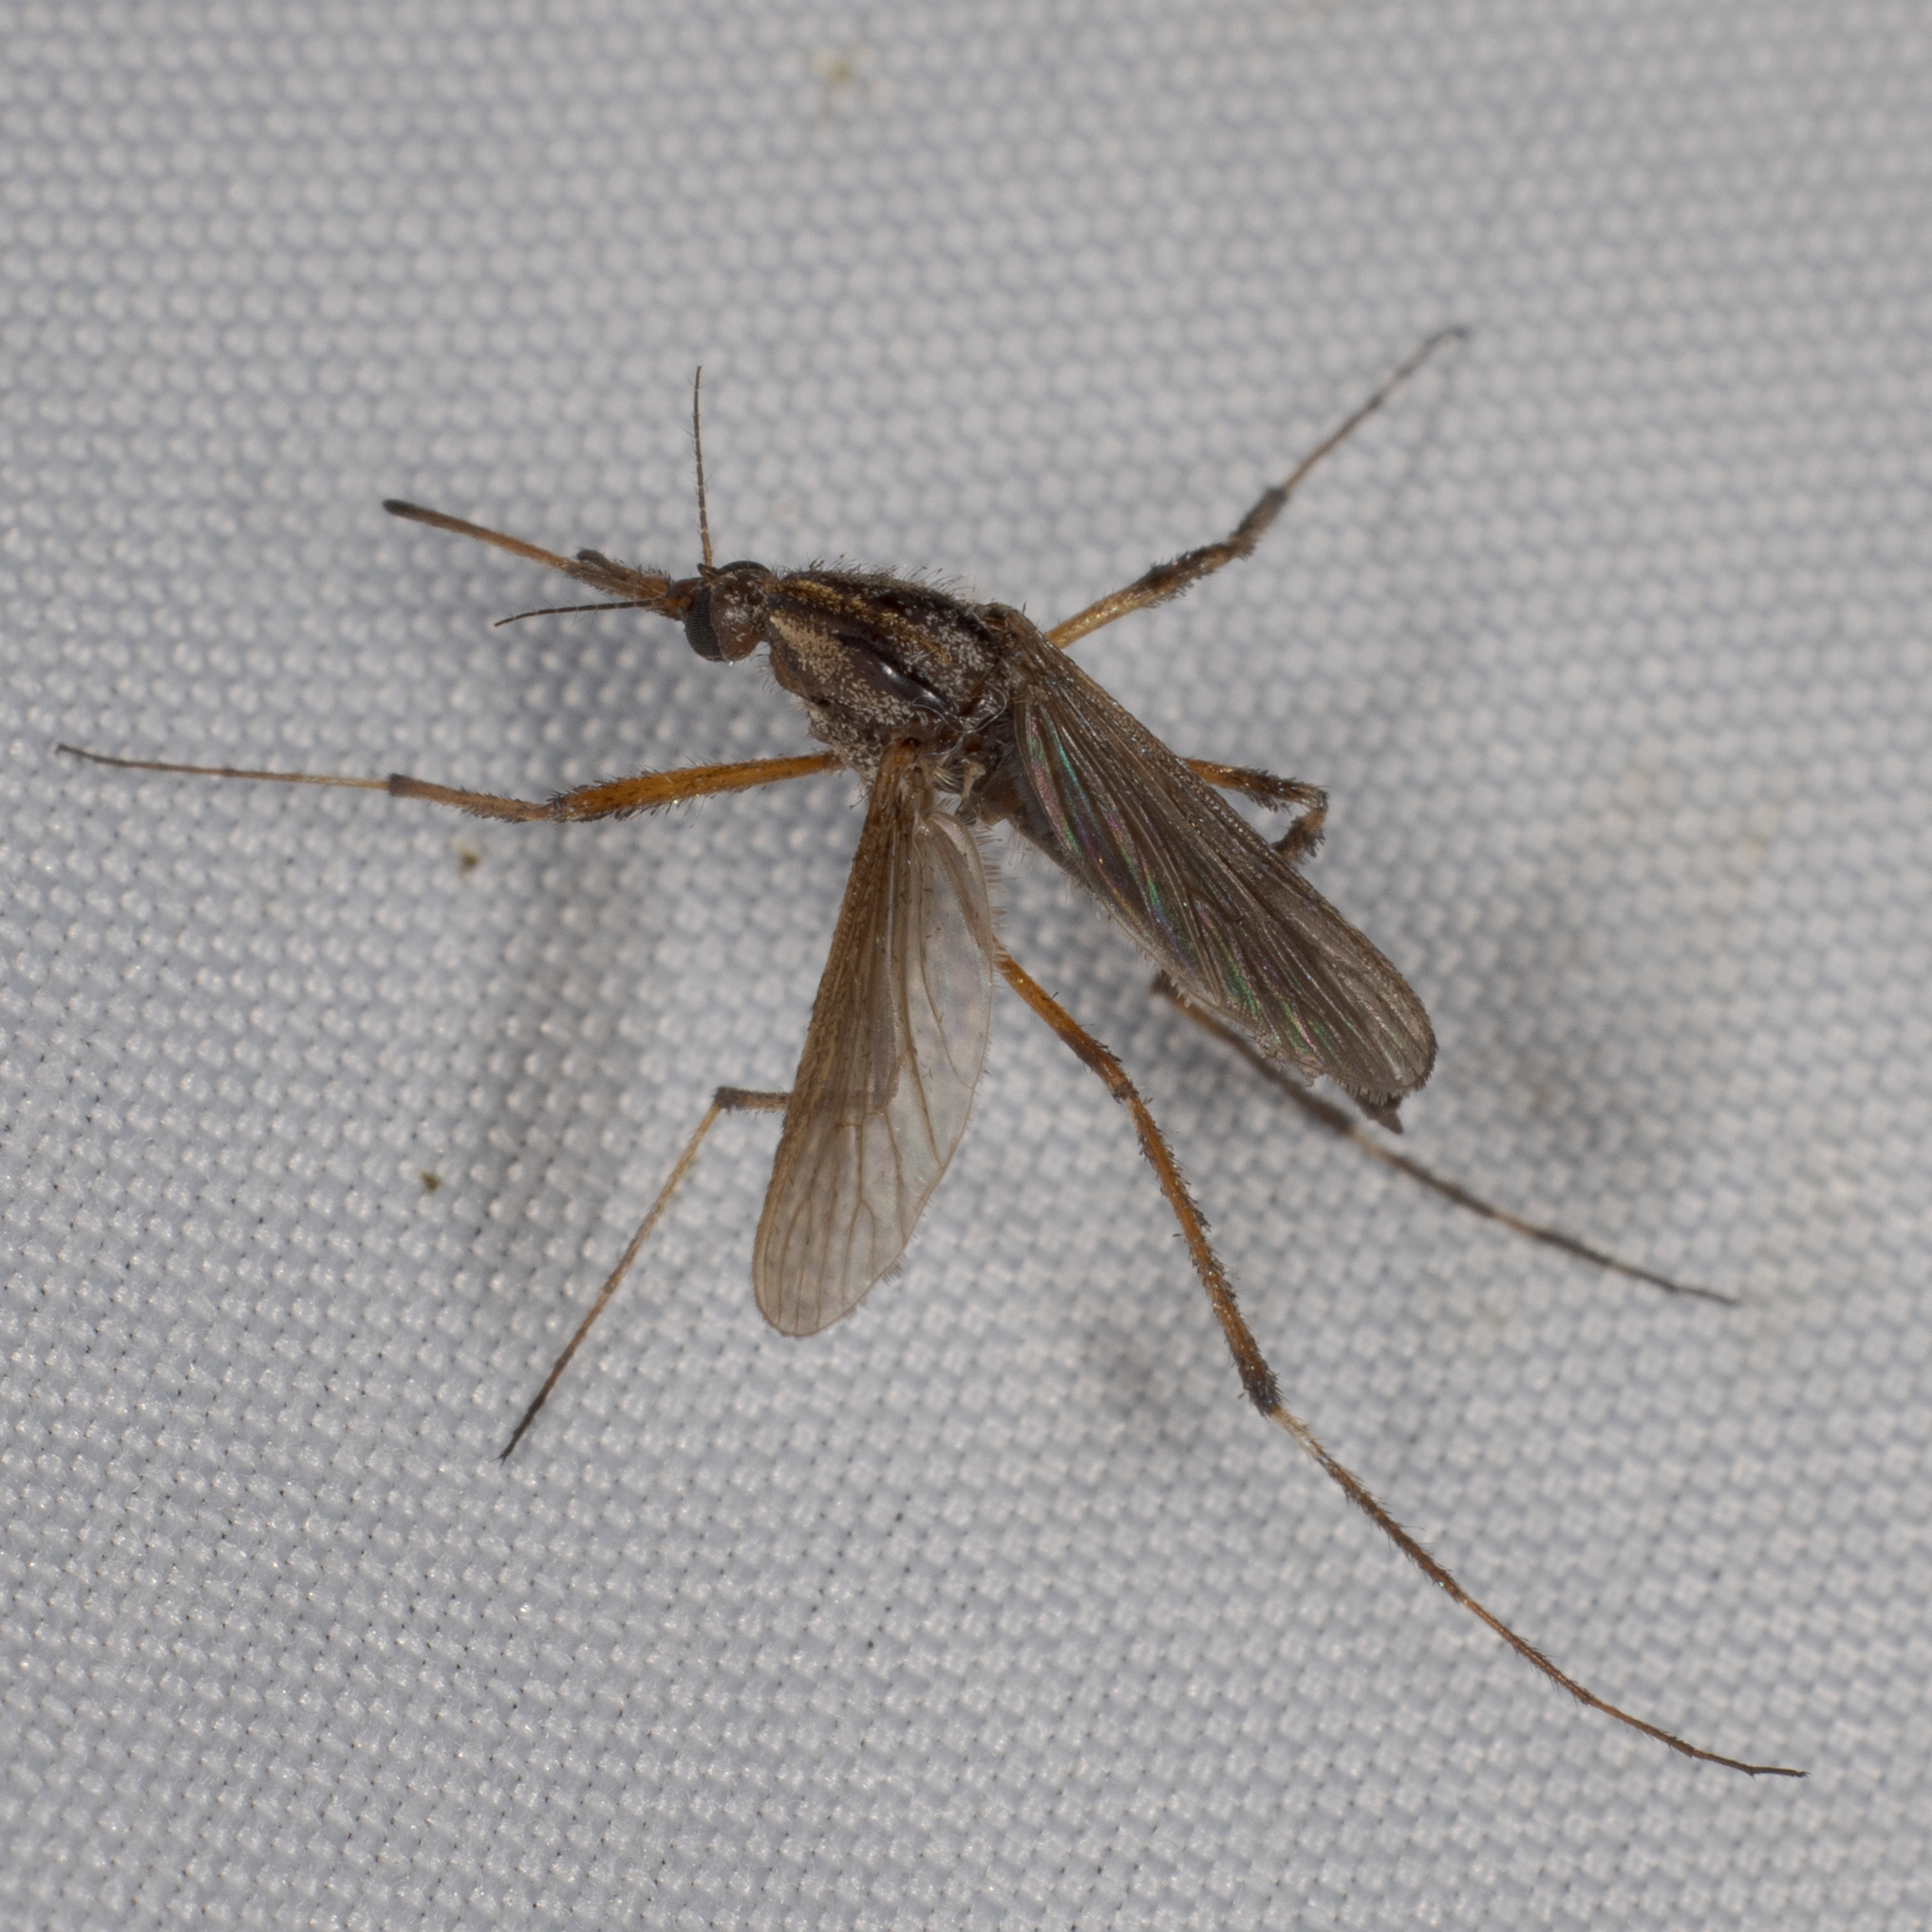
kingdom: Animalia
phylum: Arthropoda
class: Insecta
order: Diptera
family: Culicidae
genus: Psorophora
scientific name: Psorophora ciliata
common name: Gallinipper
